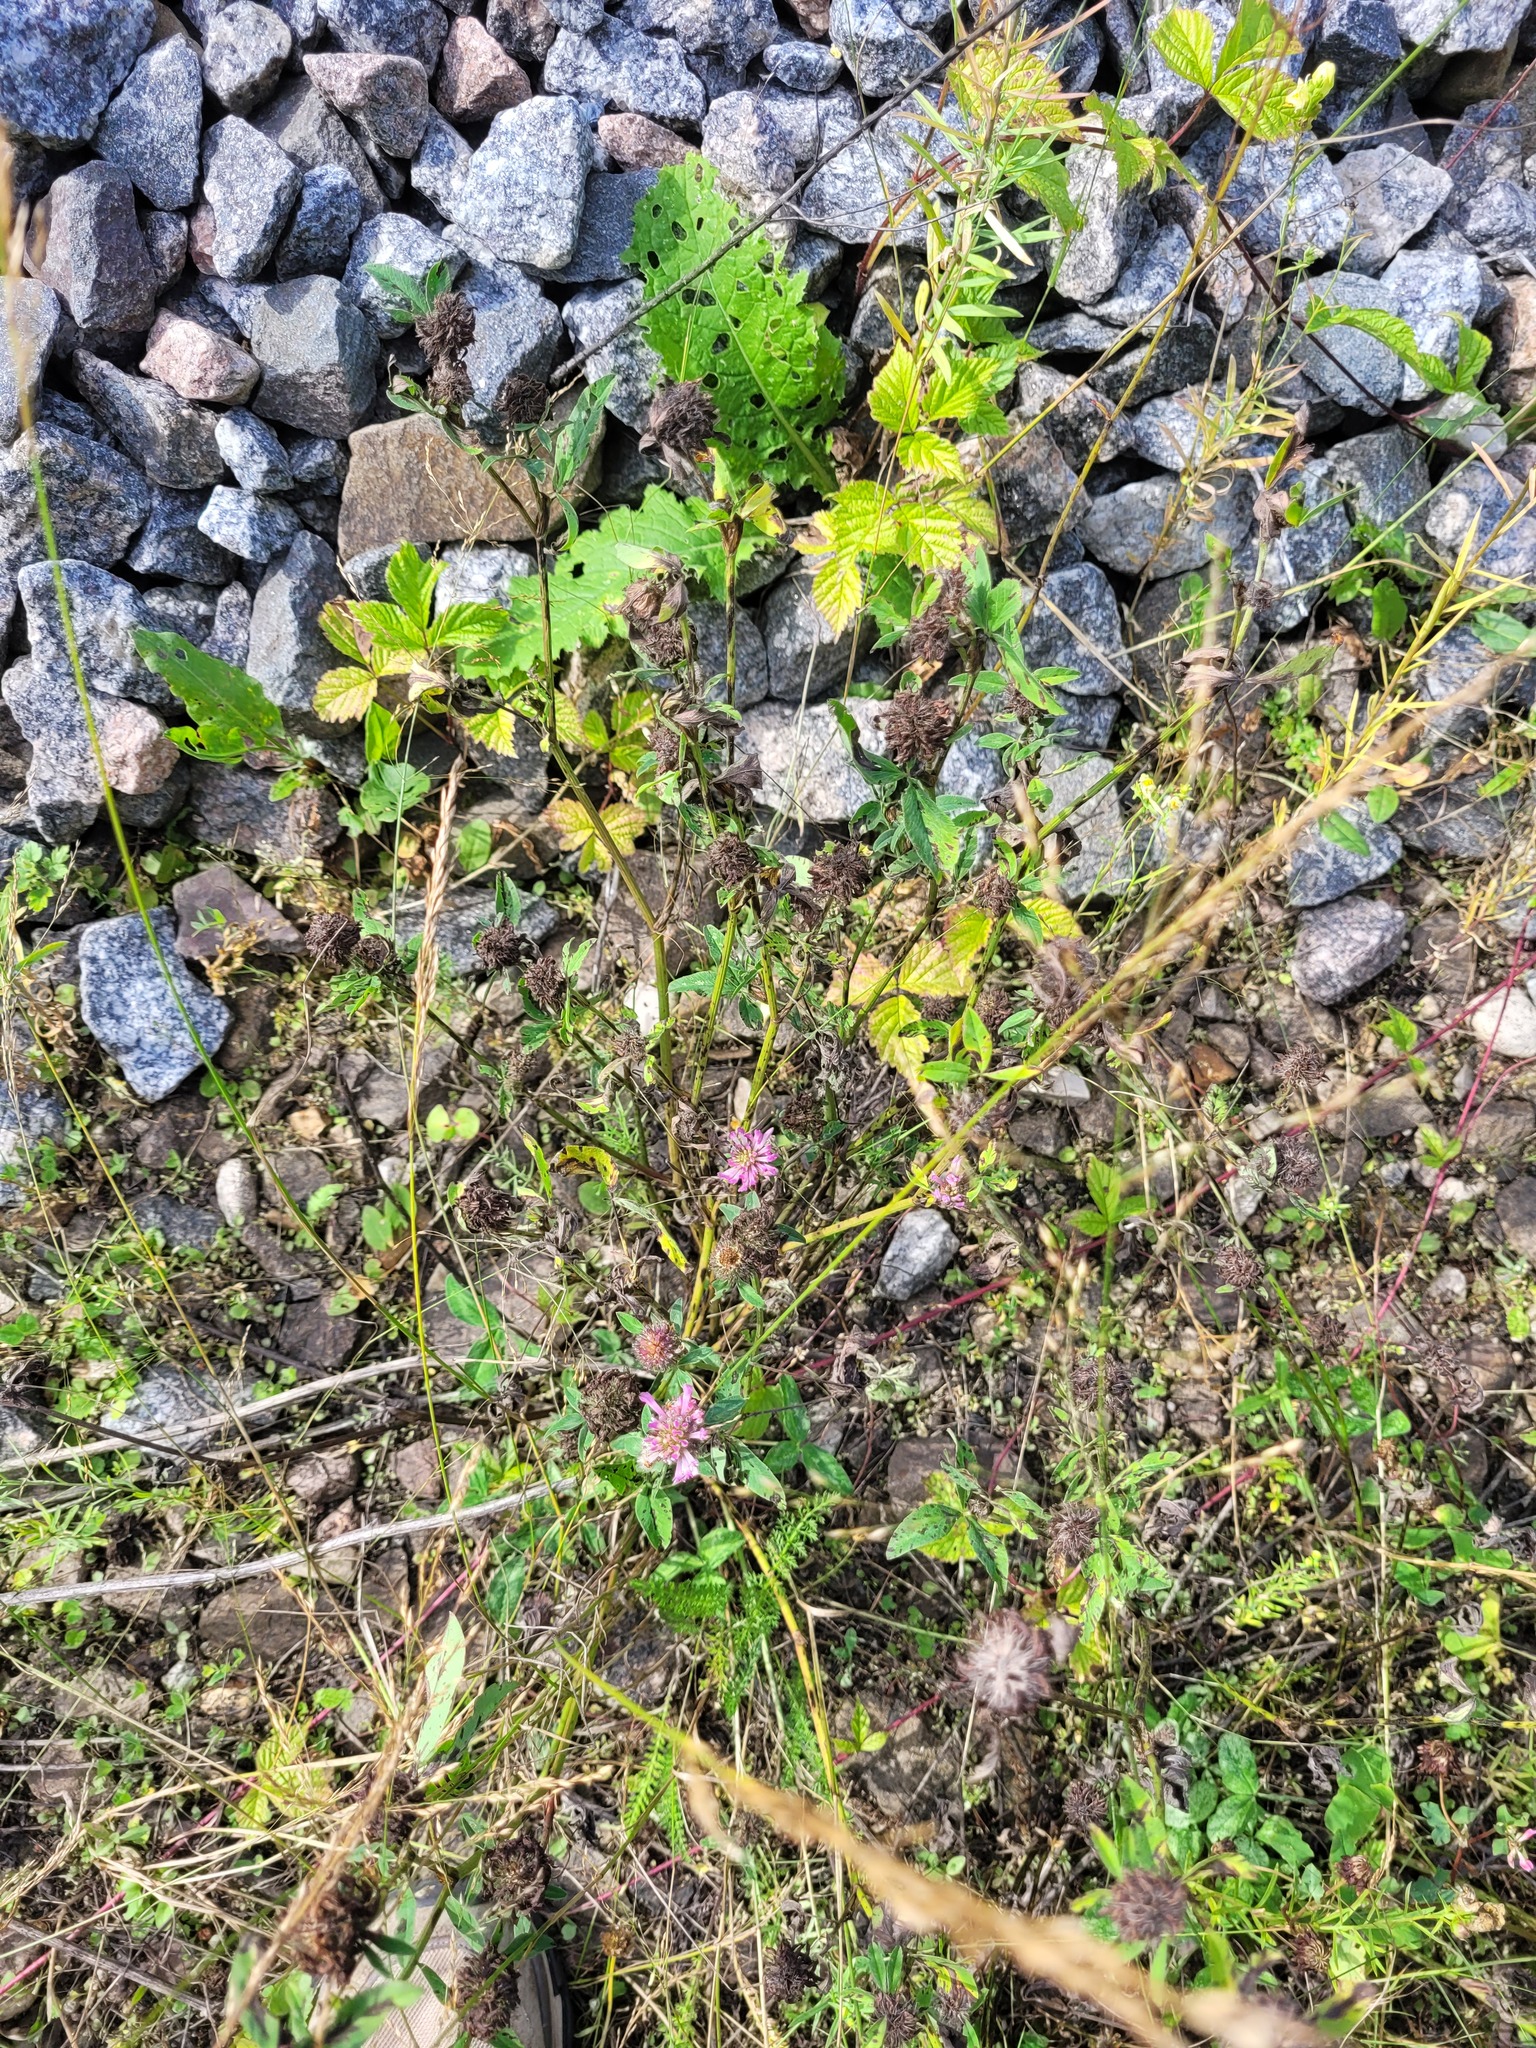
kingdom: Plantae
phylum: Tracheophyta
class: Magnoliopsida
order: Fabales
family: Fabaceae
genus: Trifolium
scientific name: Trifolium pratense
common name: Red clover
